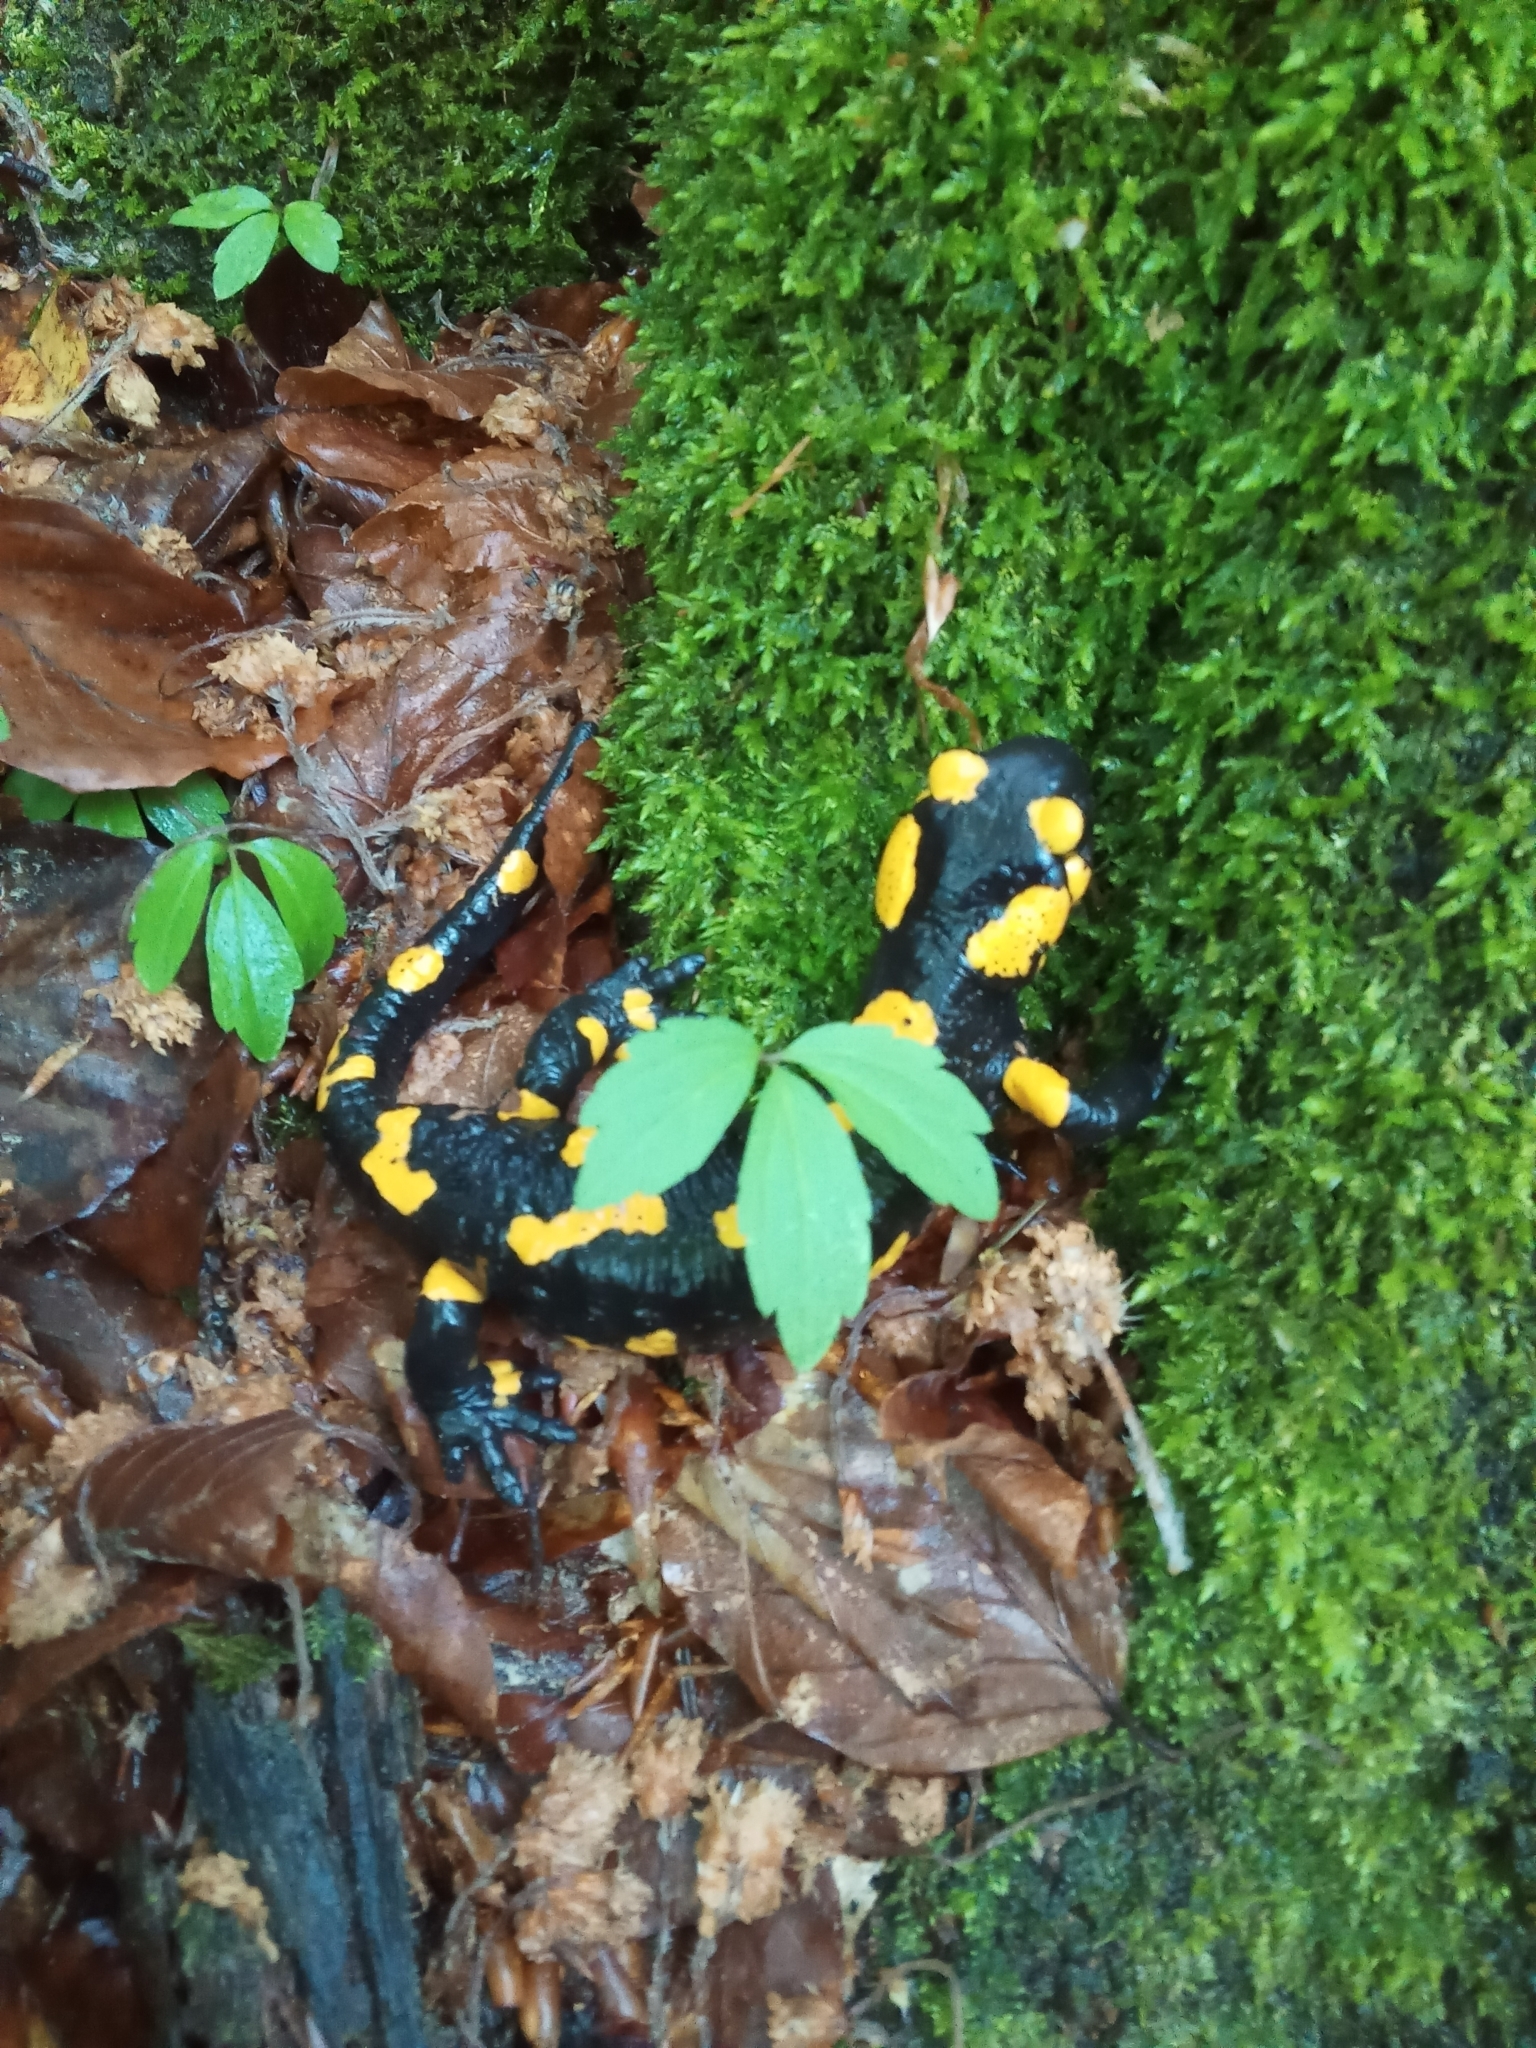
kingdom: Animalia
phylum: Chordata
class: Amphibia
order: Caudata
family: Salamandridae
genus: Salamandra
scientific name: Salamandra salamandra
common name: Fire salamander
